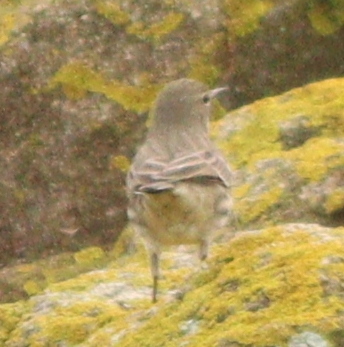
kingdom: Animalia
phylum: Chordata
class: Aves
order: Passeriformes
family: Motacillidae
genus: Anthus
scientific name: Anthus petrosus
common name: Eurasian rock pipit
